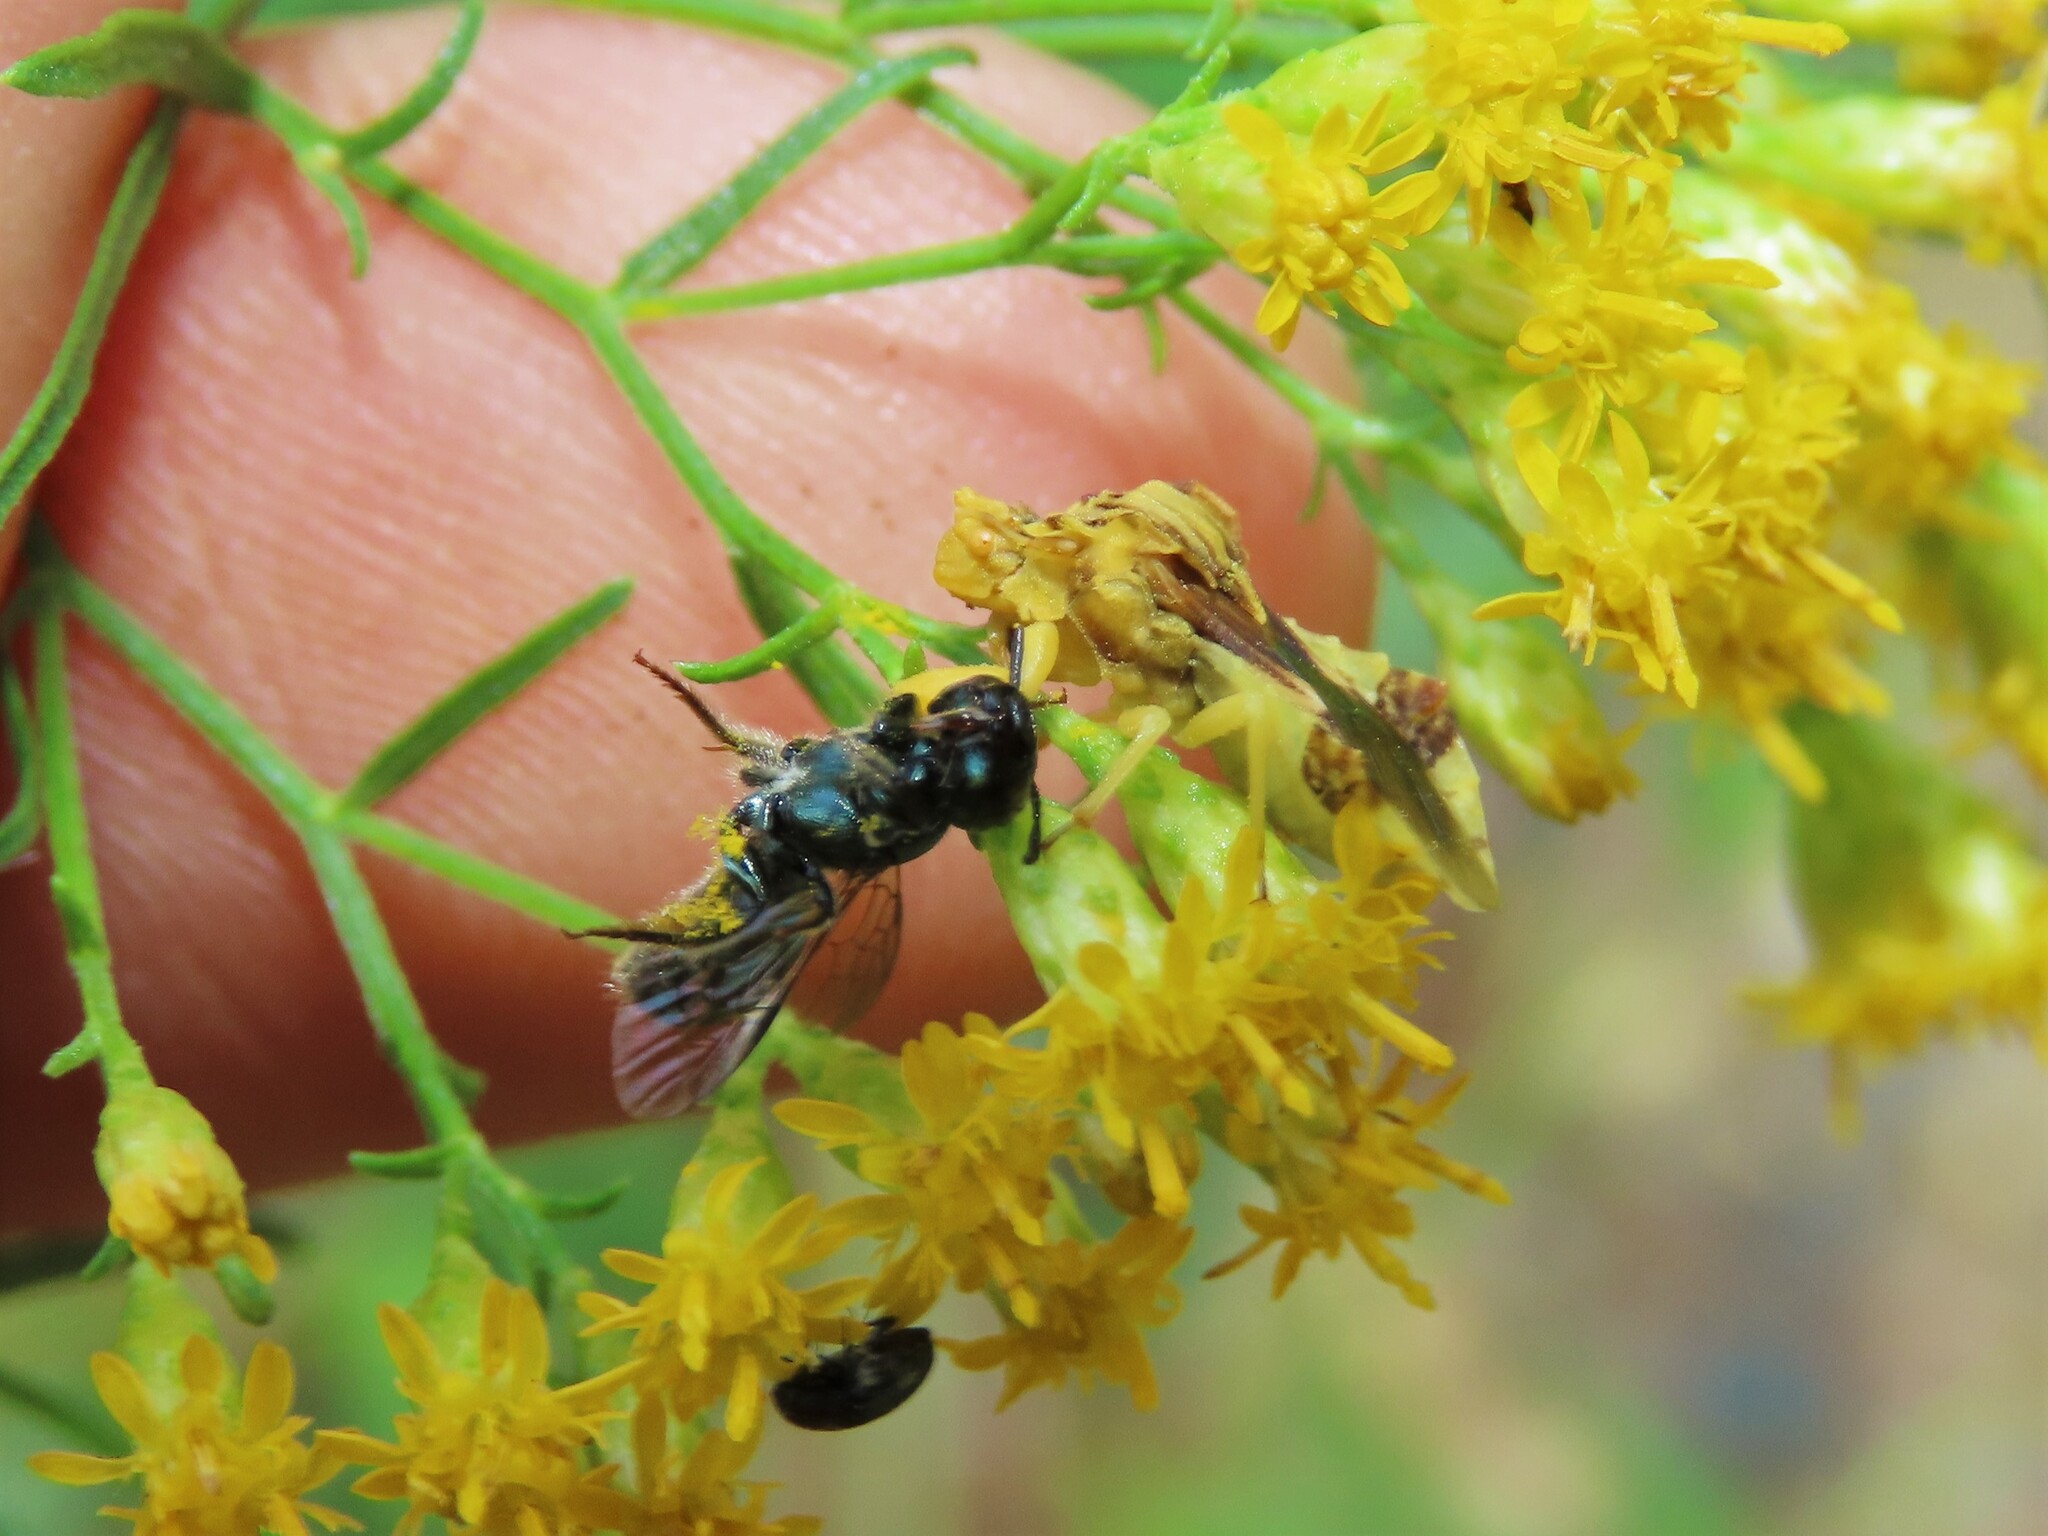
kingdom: Animalia
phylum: Arthropoda
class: Insecta
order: Hemiptera
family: Reduviidae
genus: Phymata
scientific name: Phymata fasciata
